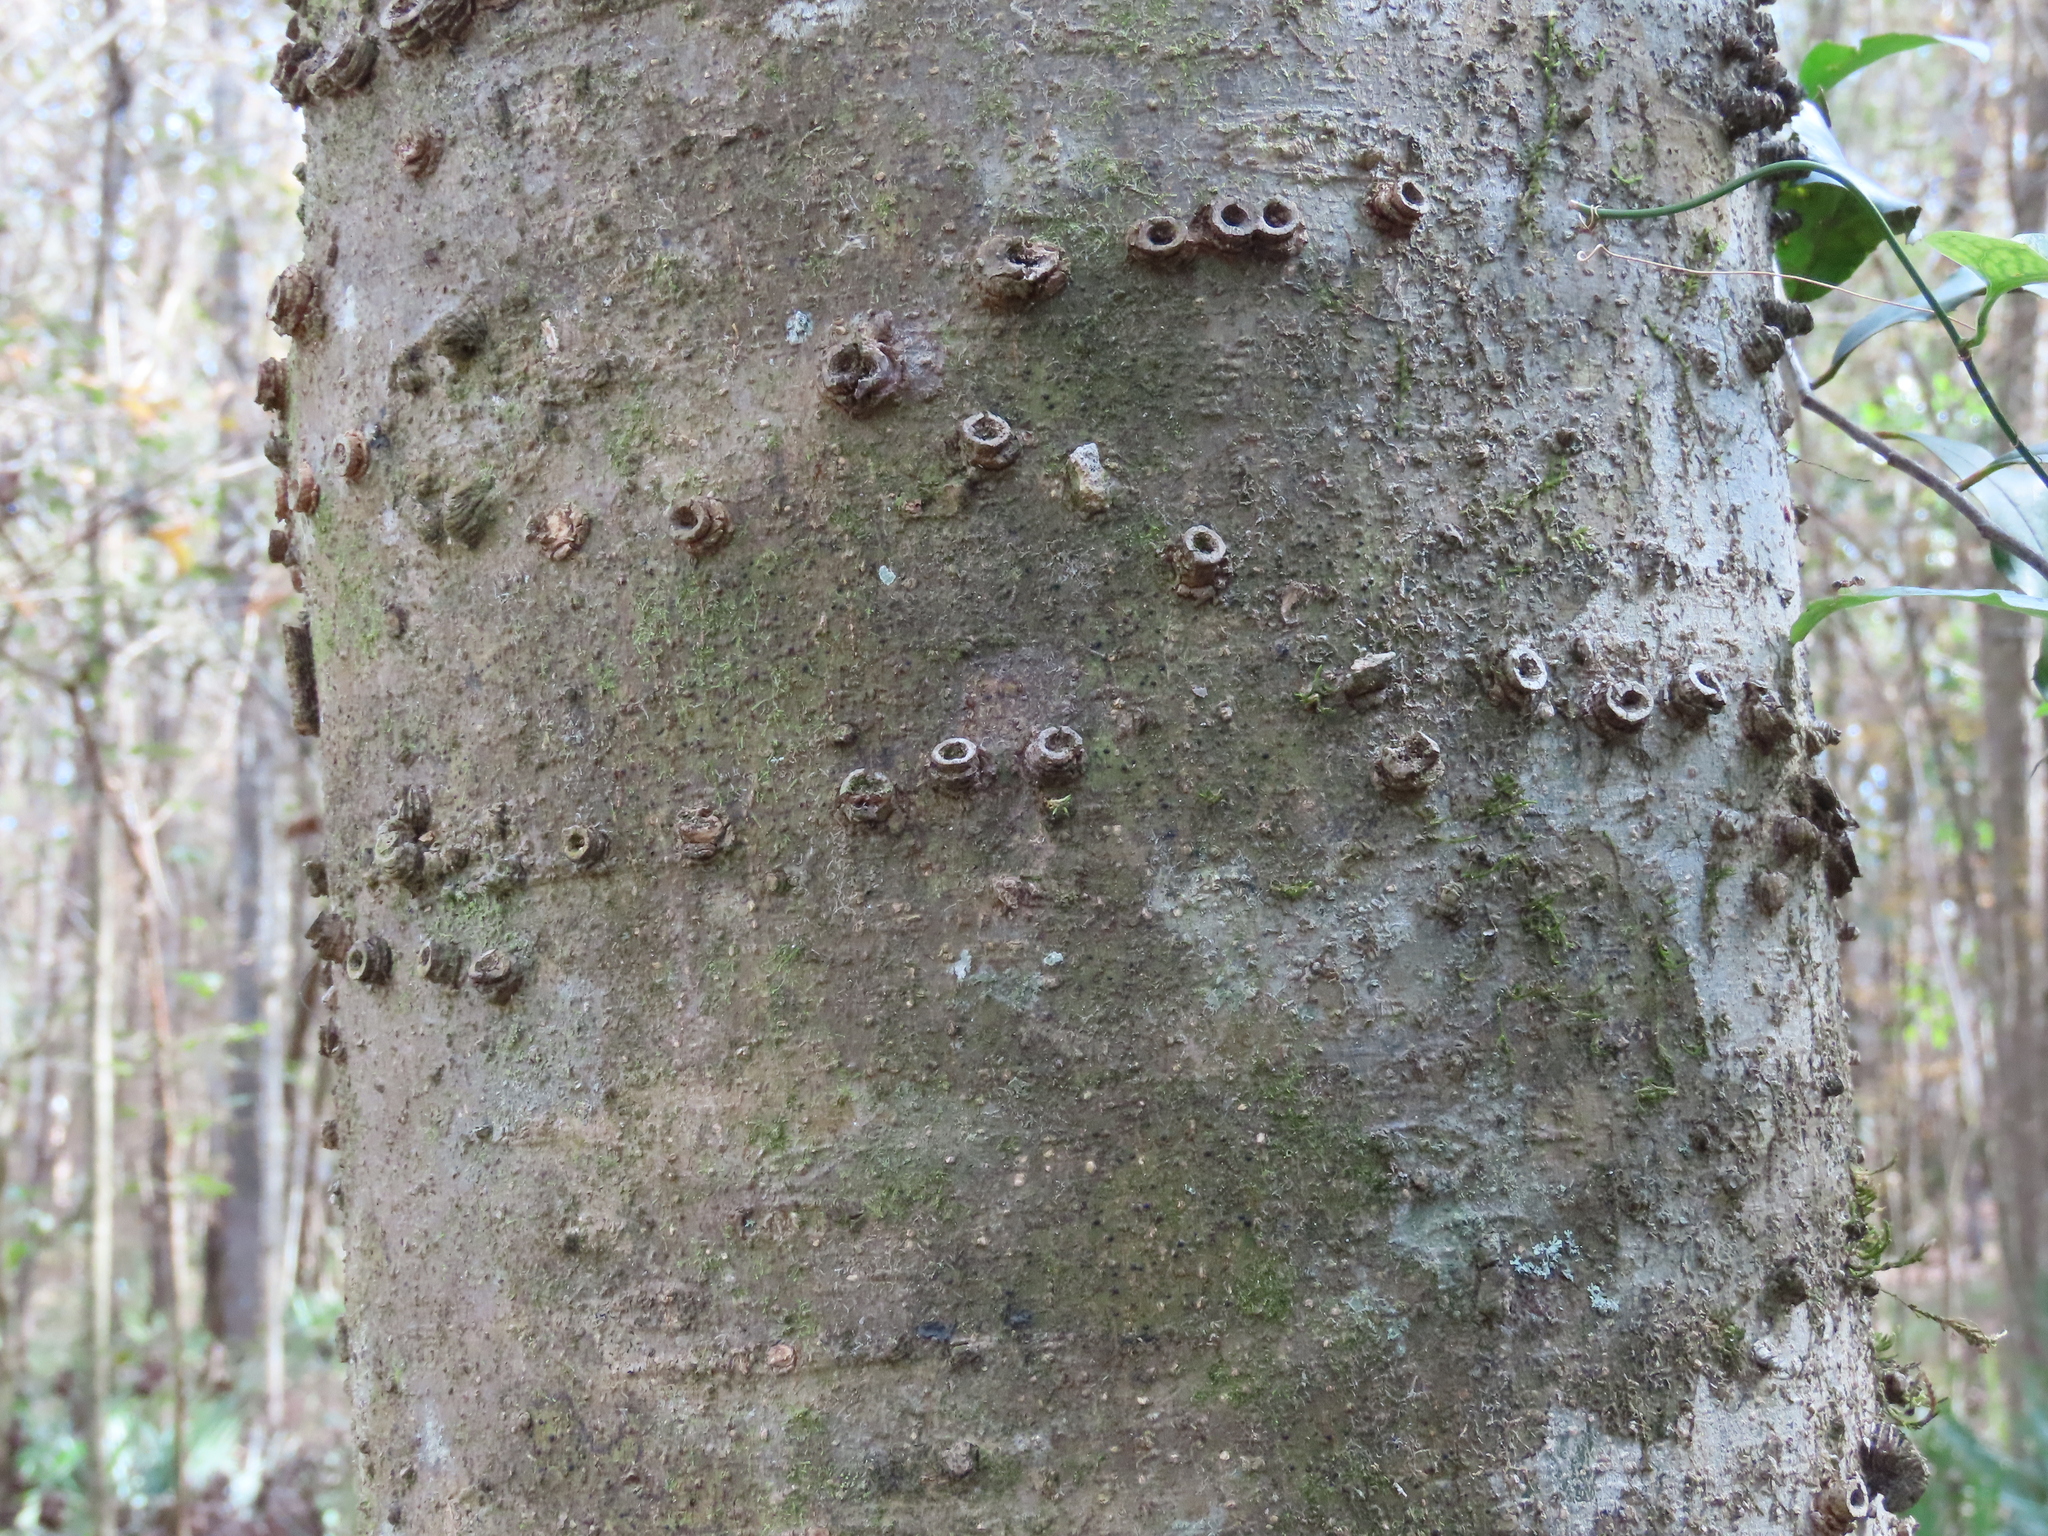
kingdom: Plantae
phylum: Tracheophyta
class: Magnoliopsida
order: Rosales
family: Cannabaceae
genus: Celtis
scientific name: Celtis laevigata
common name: Sugarberry
